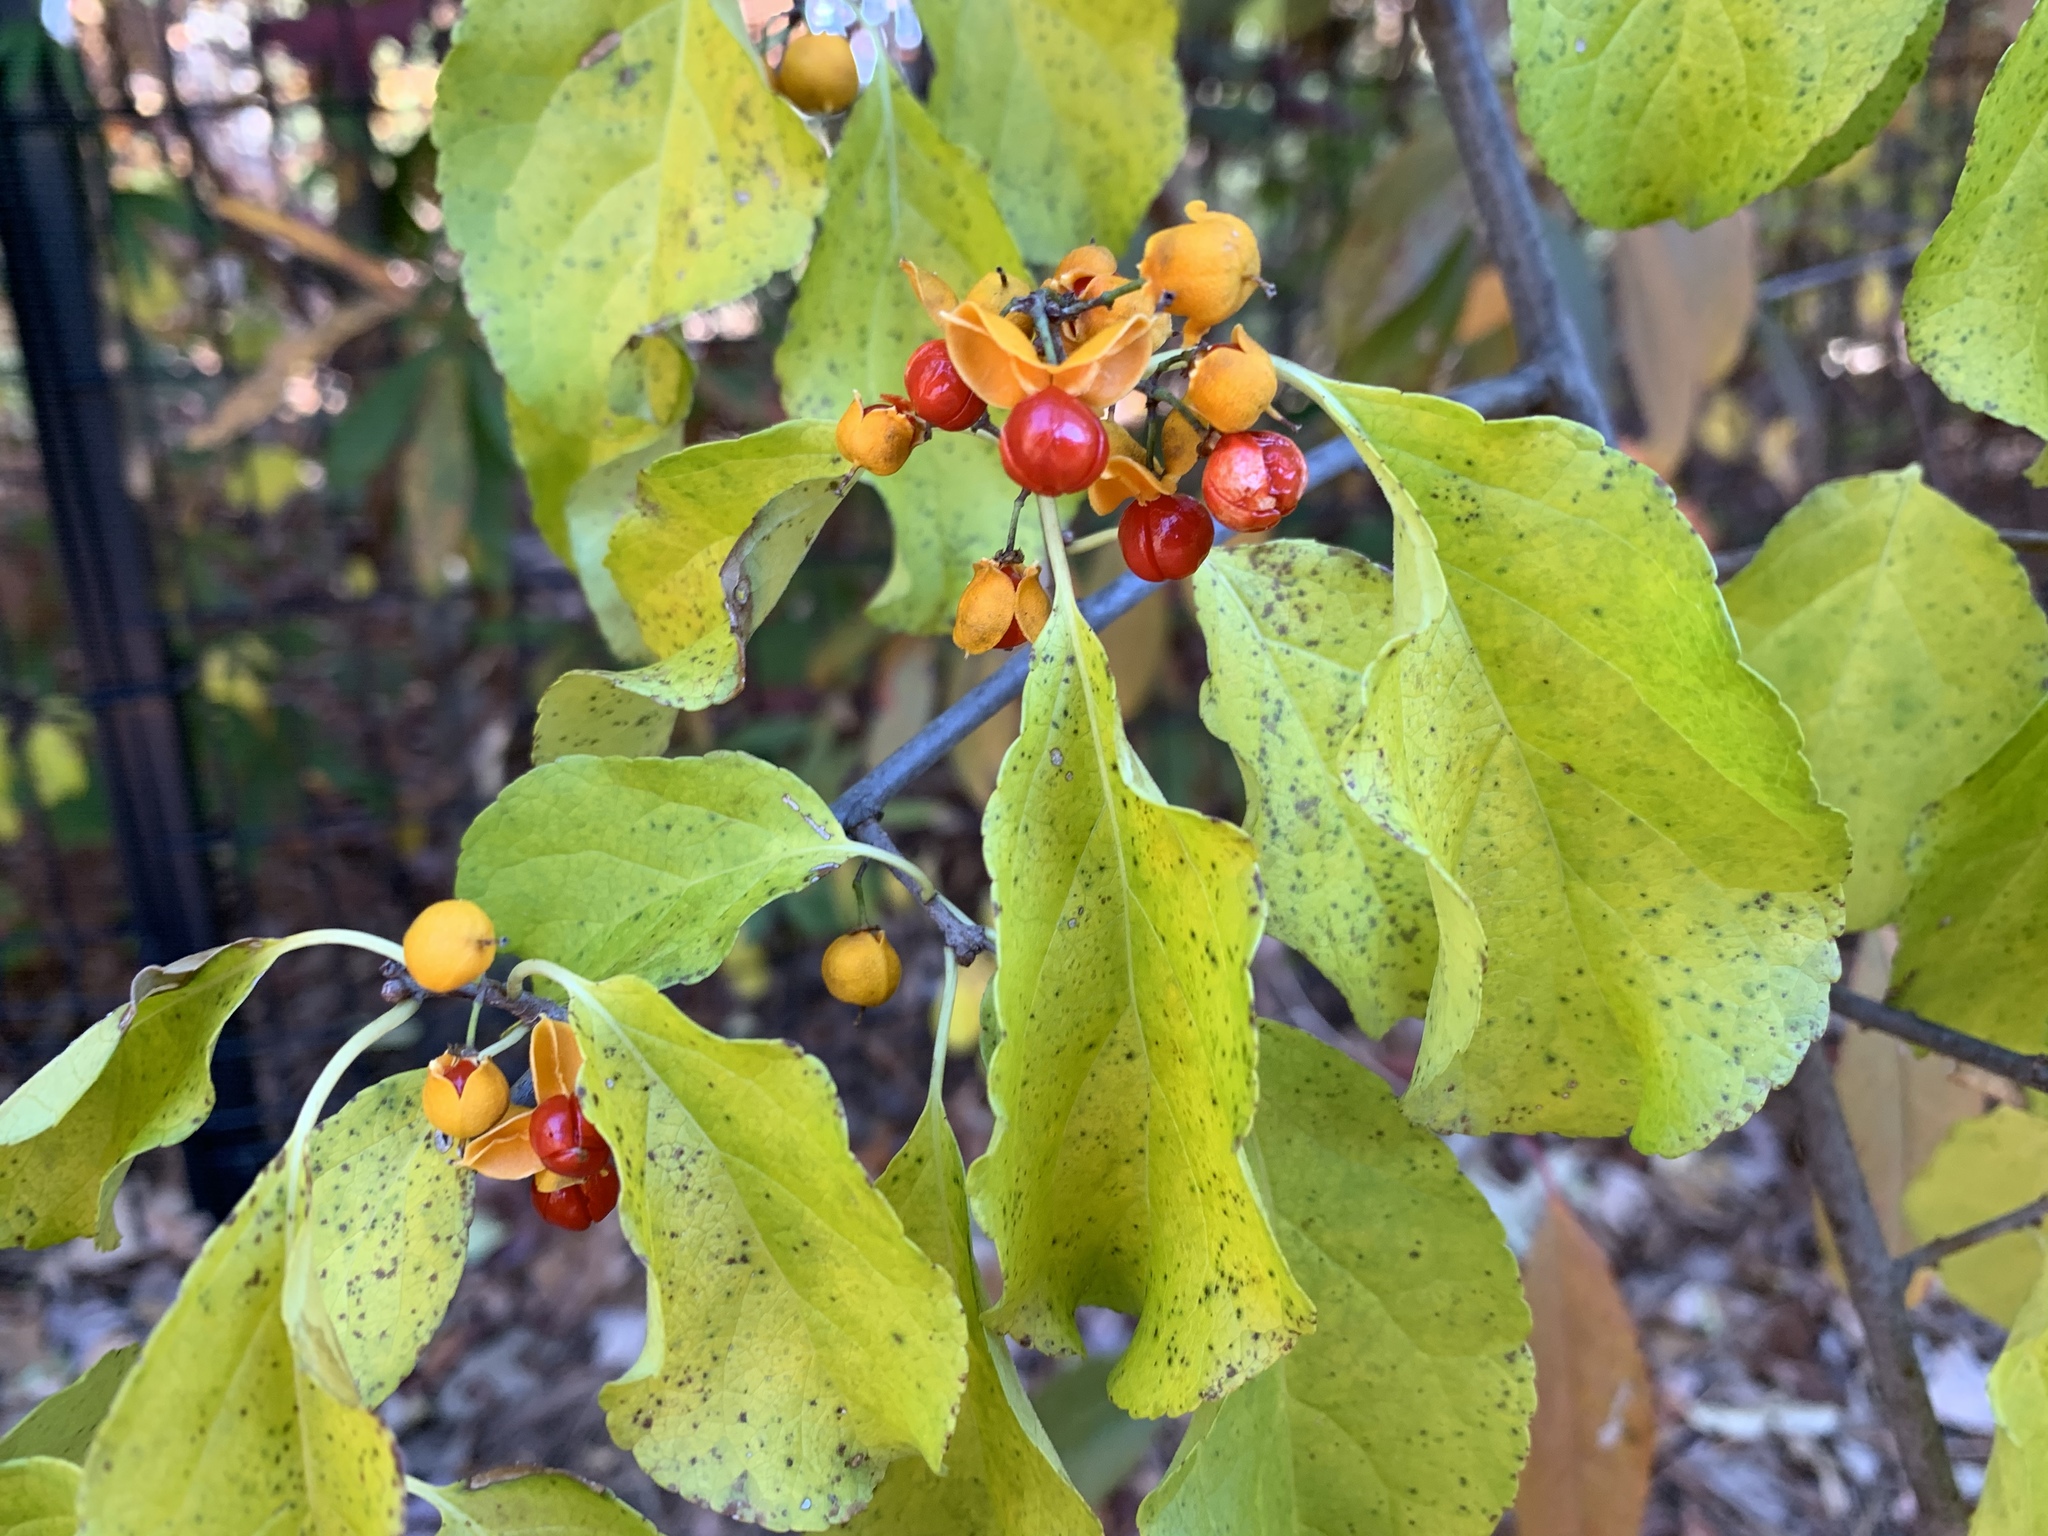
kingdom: Plantae
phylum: Tracheophyta
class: Magnoliopsida
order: Celastrales
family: Celastraceae
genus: Celastrus
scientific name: Celastrus orbiculatus
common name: Oriental bittersweet
